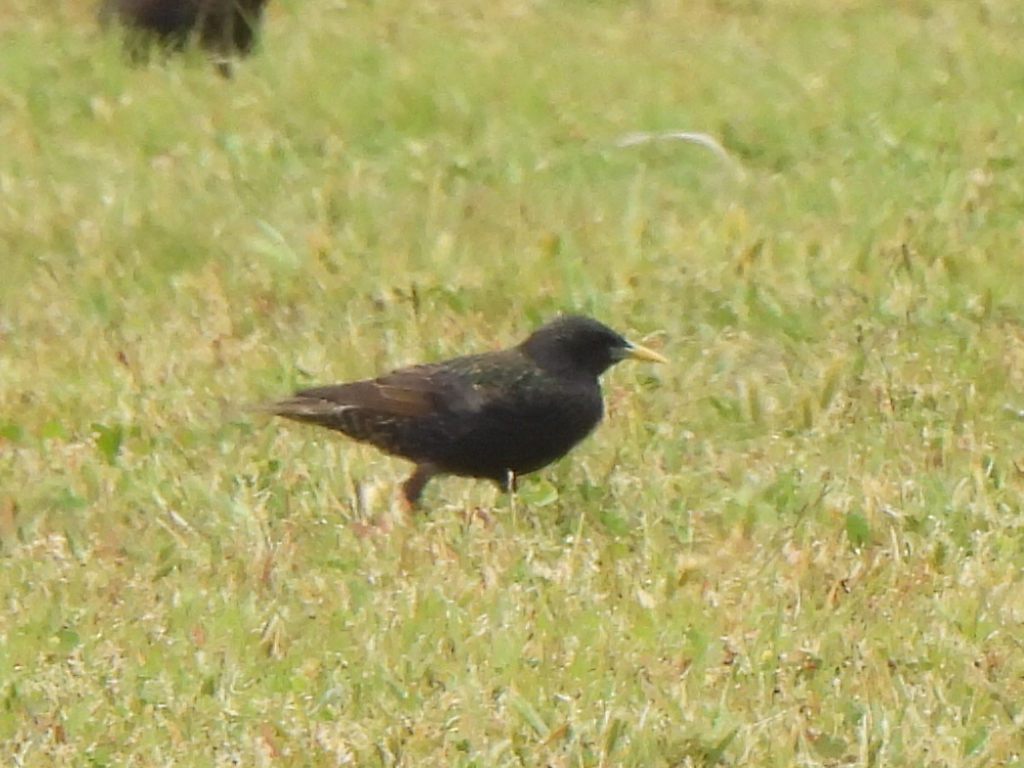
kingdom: Animalia
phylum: Chordata
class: Aves
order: Passeriformes
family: Sturnidae
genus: Sturnus
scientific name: Sturnus vulgaris
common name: Common starling
